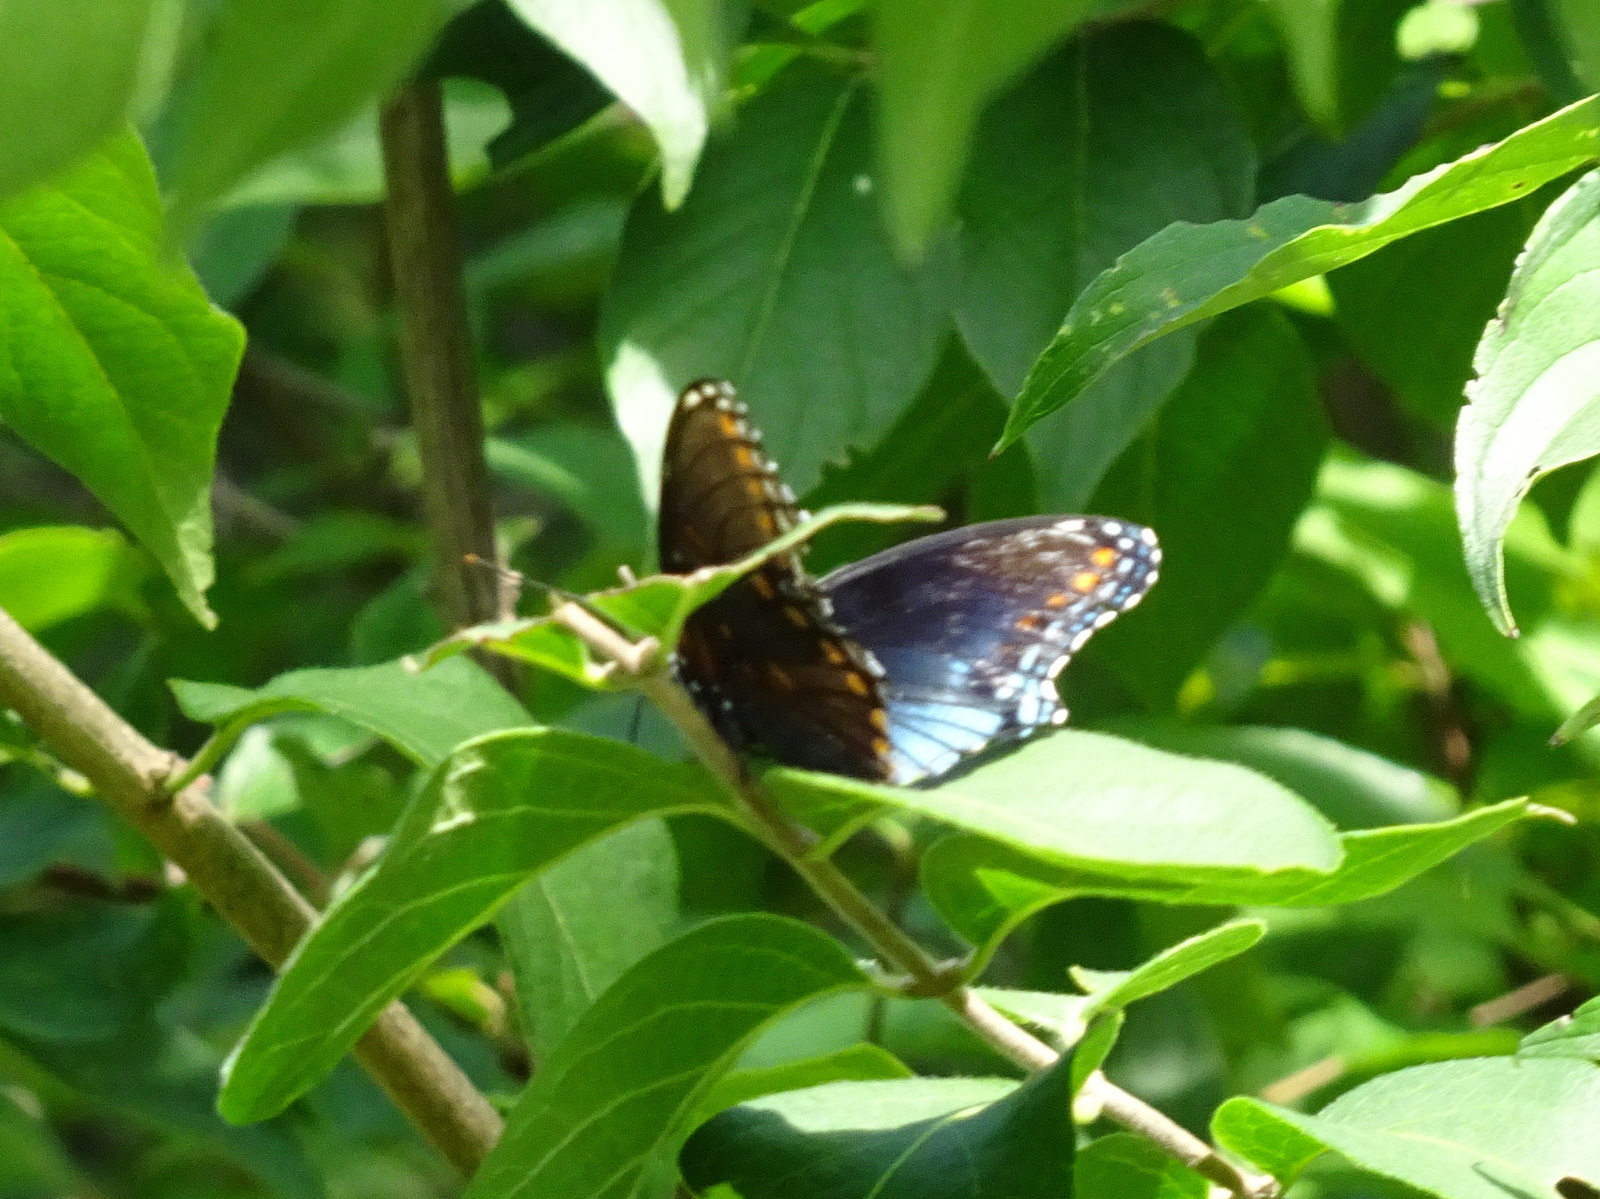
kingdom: Animalia
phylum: Arthropoda
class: Insecta
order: Lepidoptera
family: Nymphalidae
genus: Limenitis
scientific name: Limenitis arthemis
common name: Red-spotted admiral
